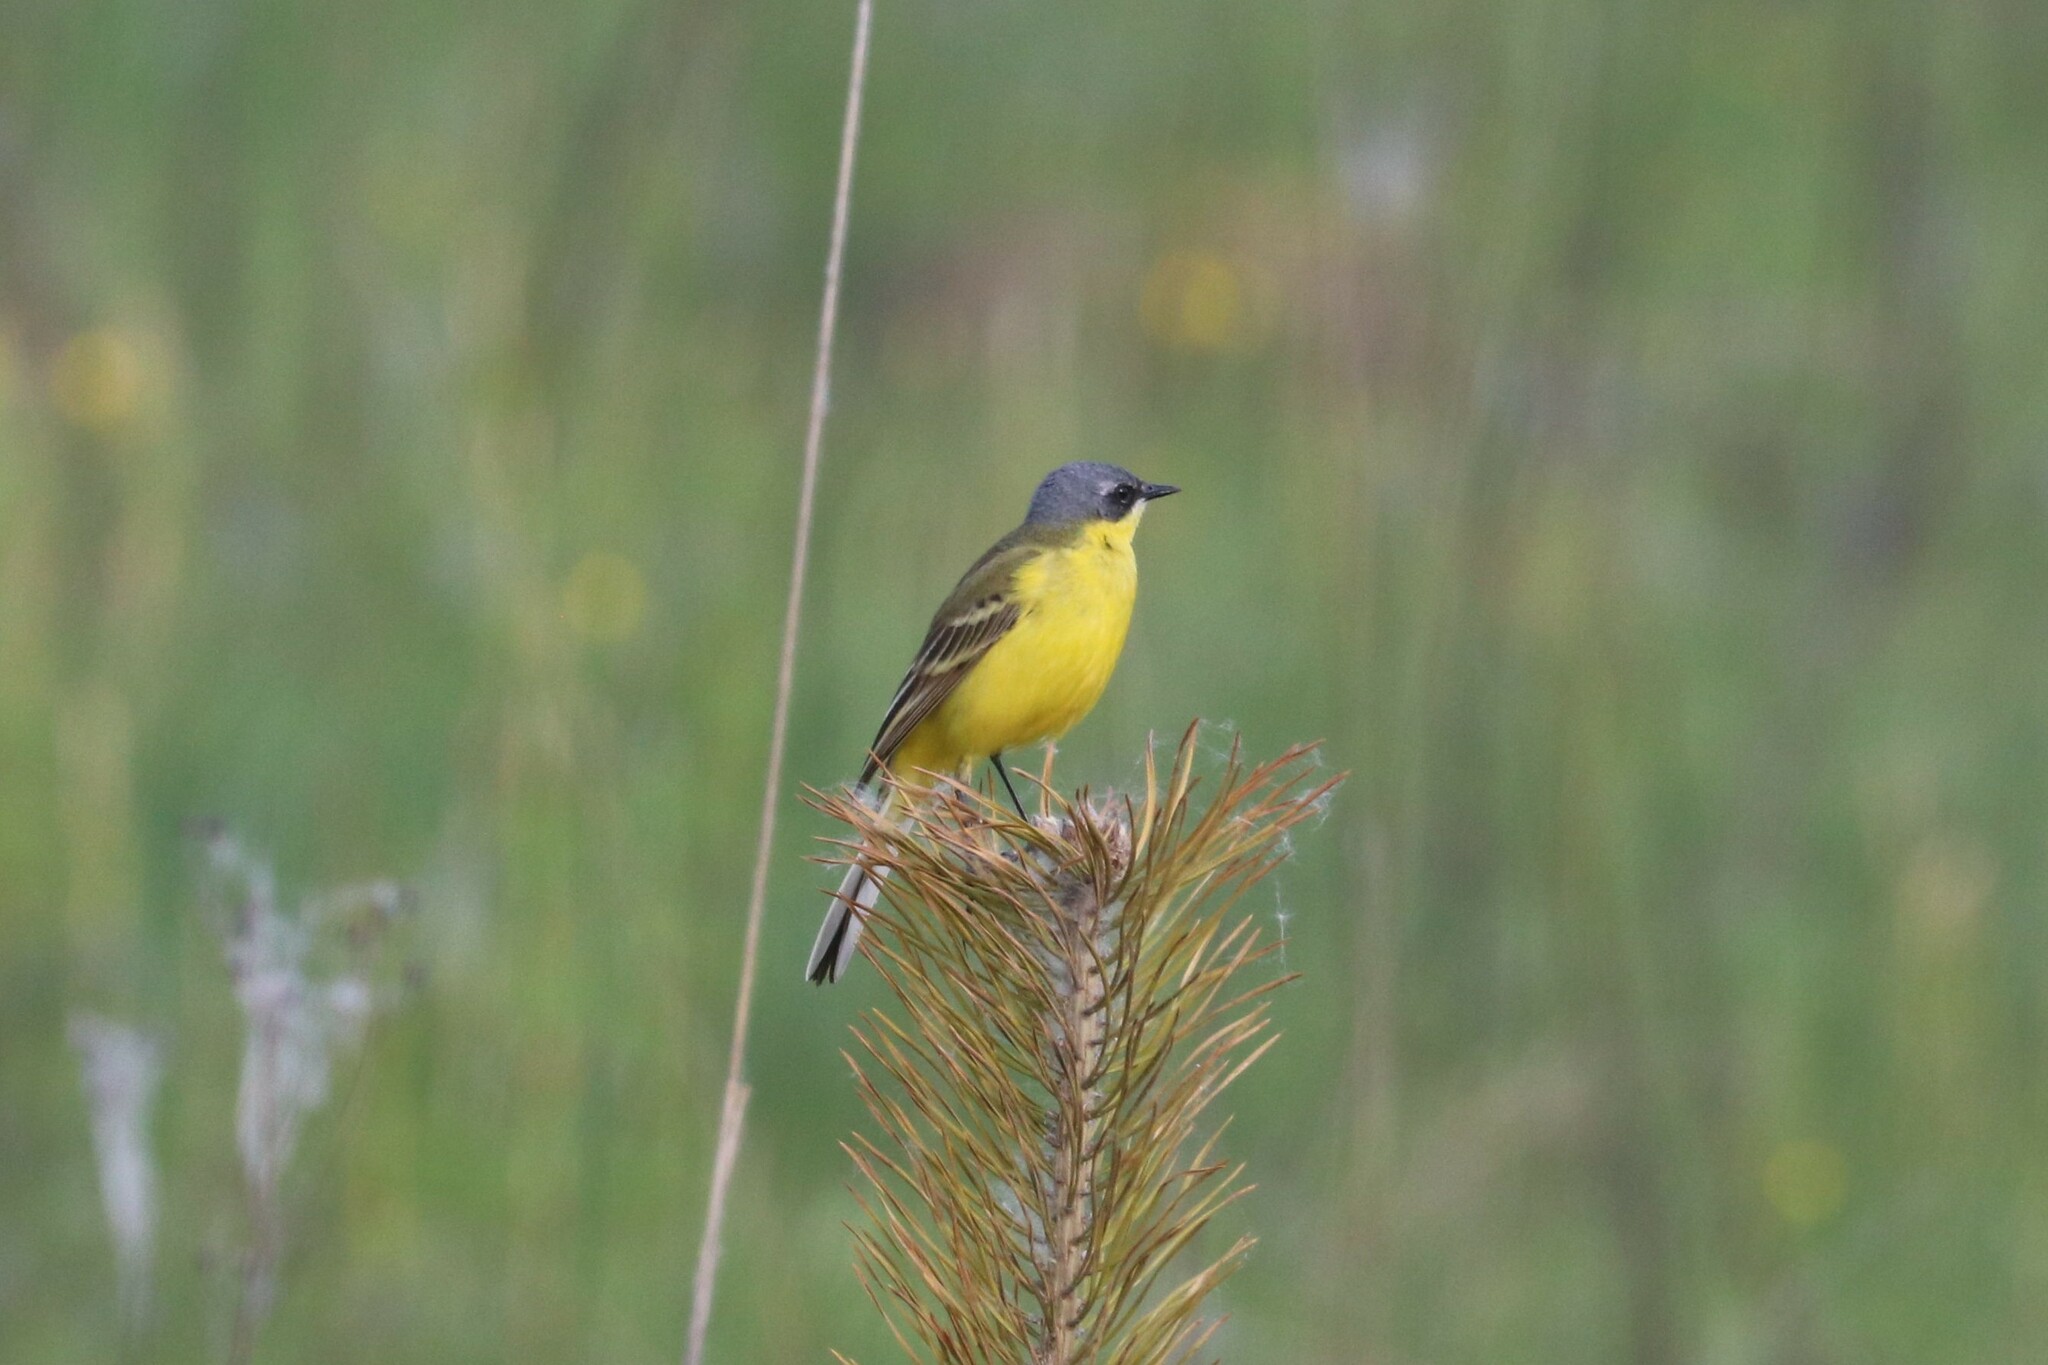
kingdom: Animalia
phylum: Chordata
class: Aves
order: Passeriformes
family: Motacillidae
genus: Motacilla
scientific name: Motacilla flava
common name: Western yellow wagtail
